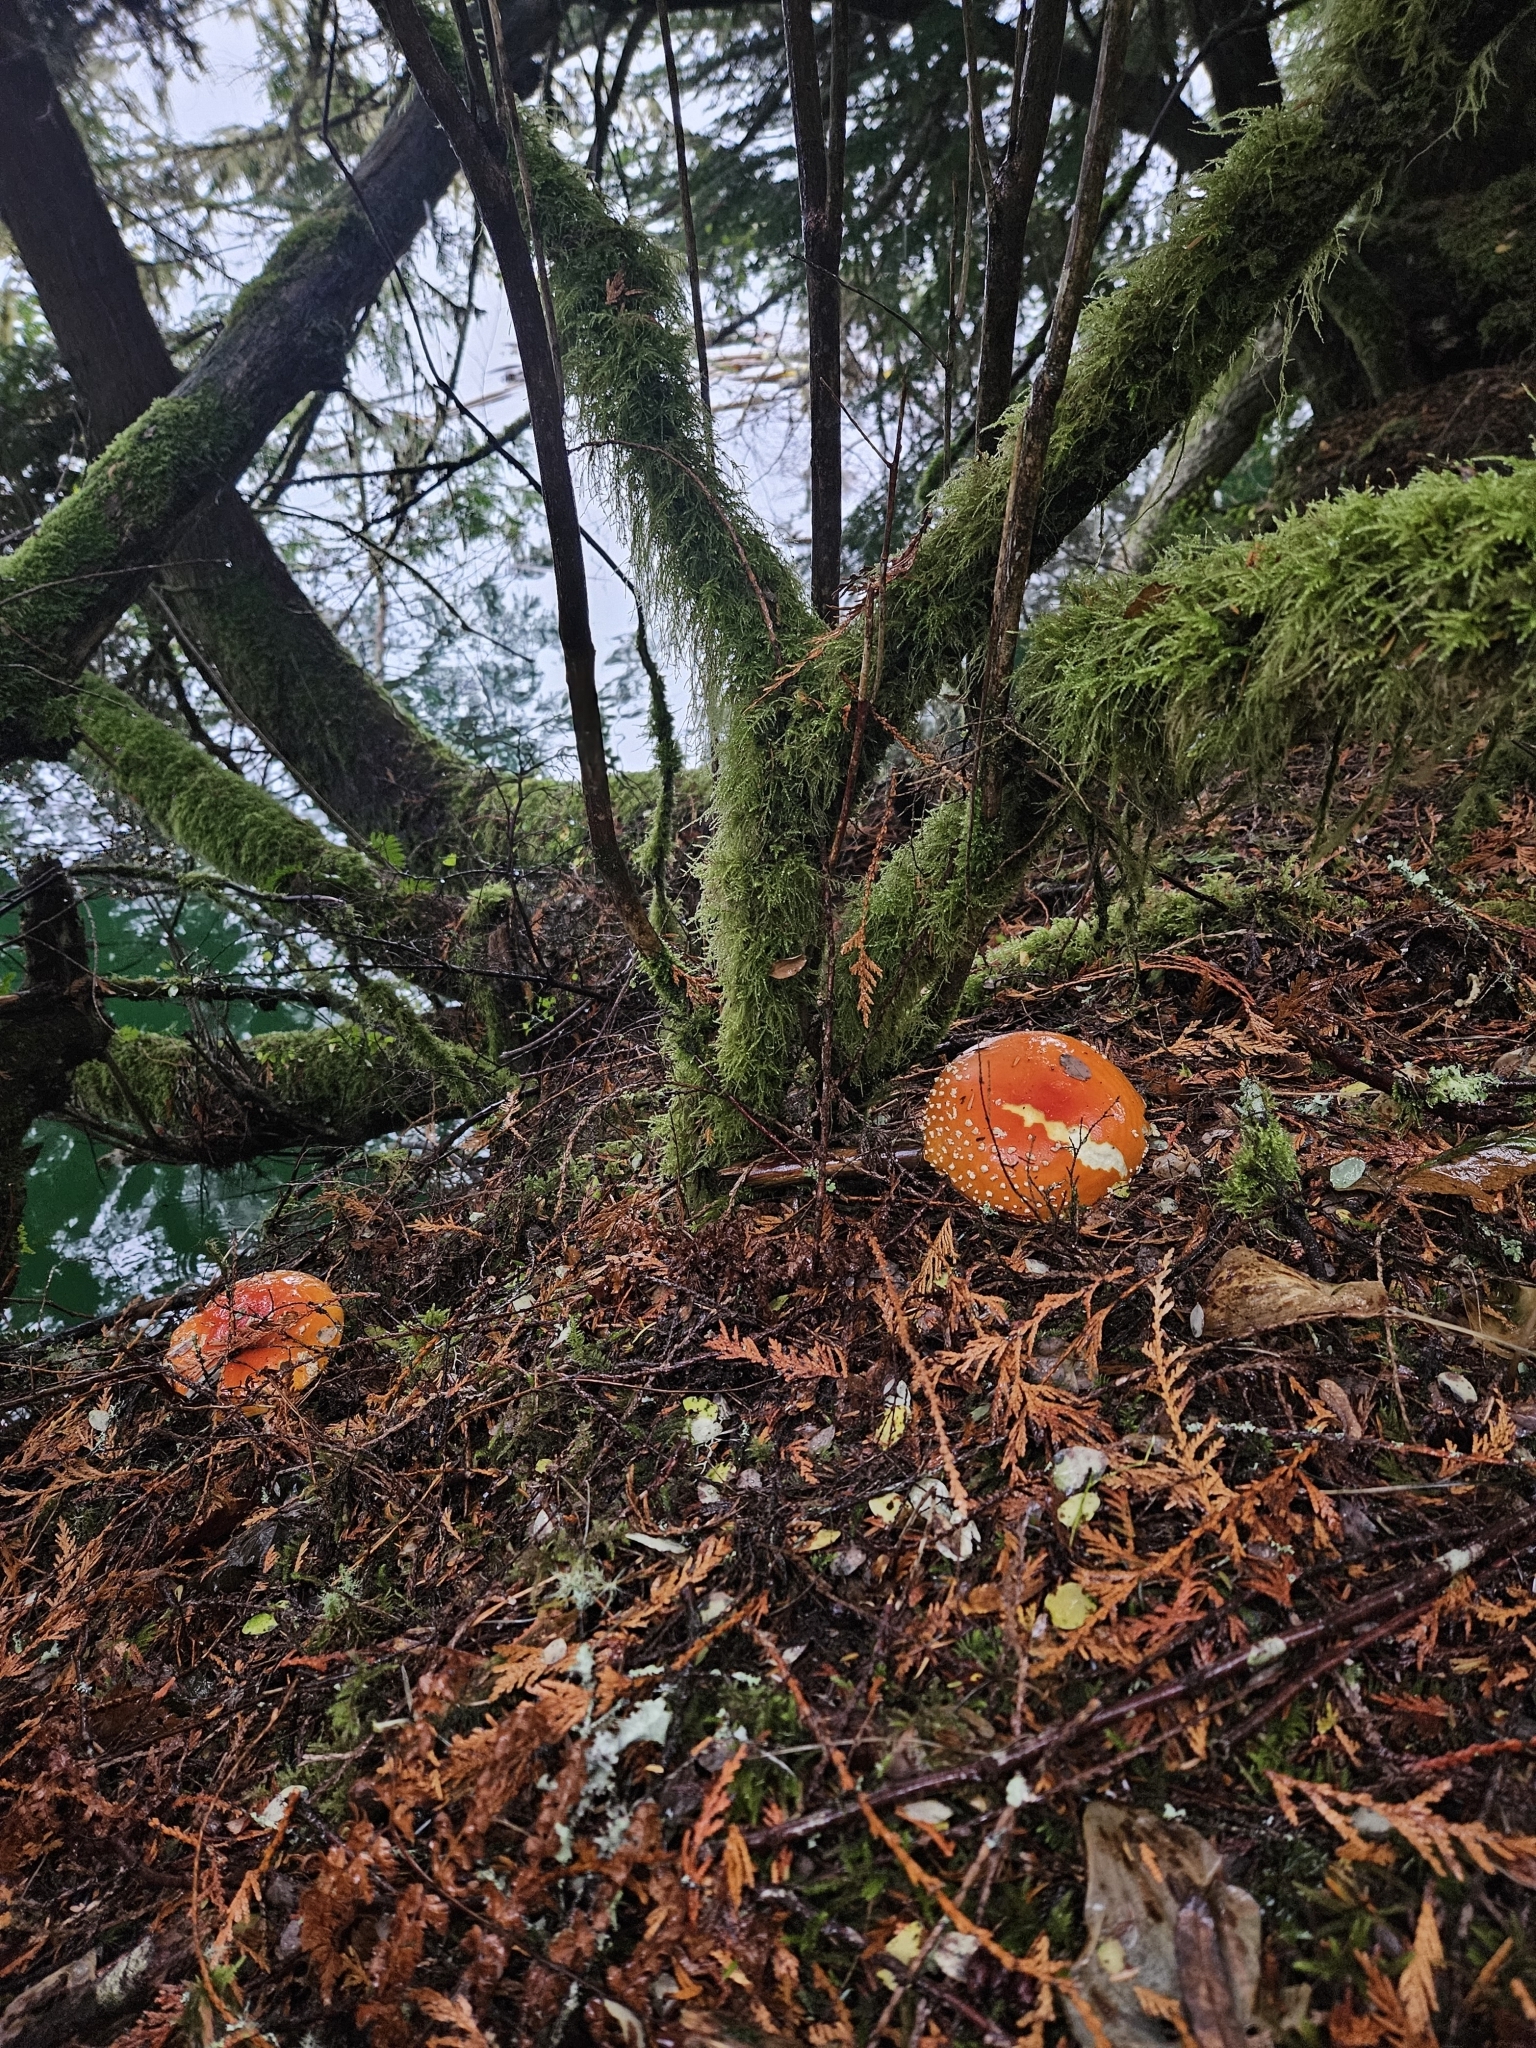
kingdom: Fungi
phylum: Basidiomycota
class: Agaricomycetes
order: Agaricales
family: Amanitaceae
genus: Amanita
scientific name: Amanita muscaria
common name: Fly agaric
